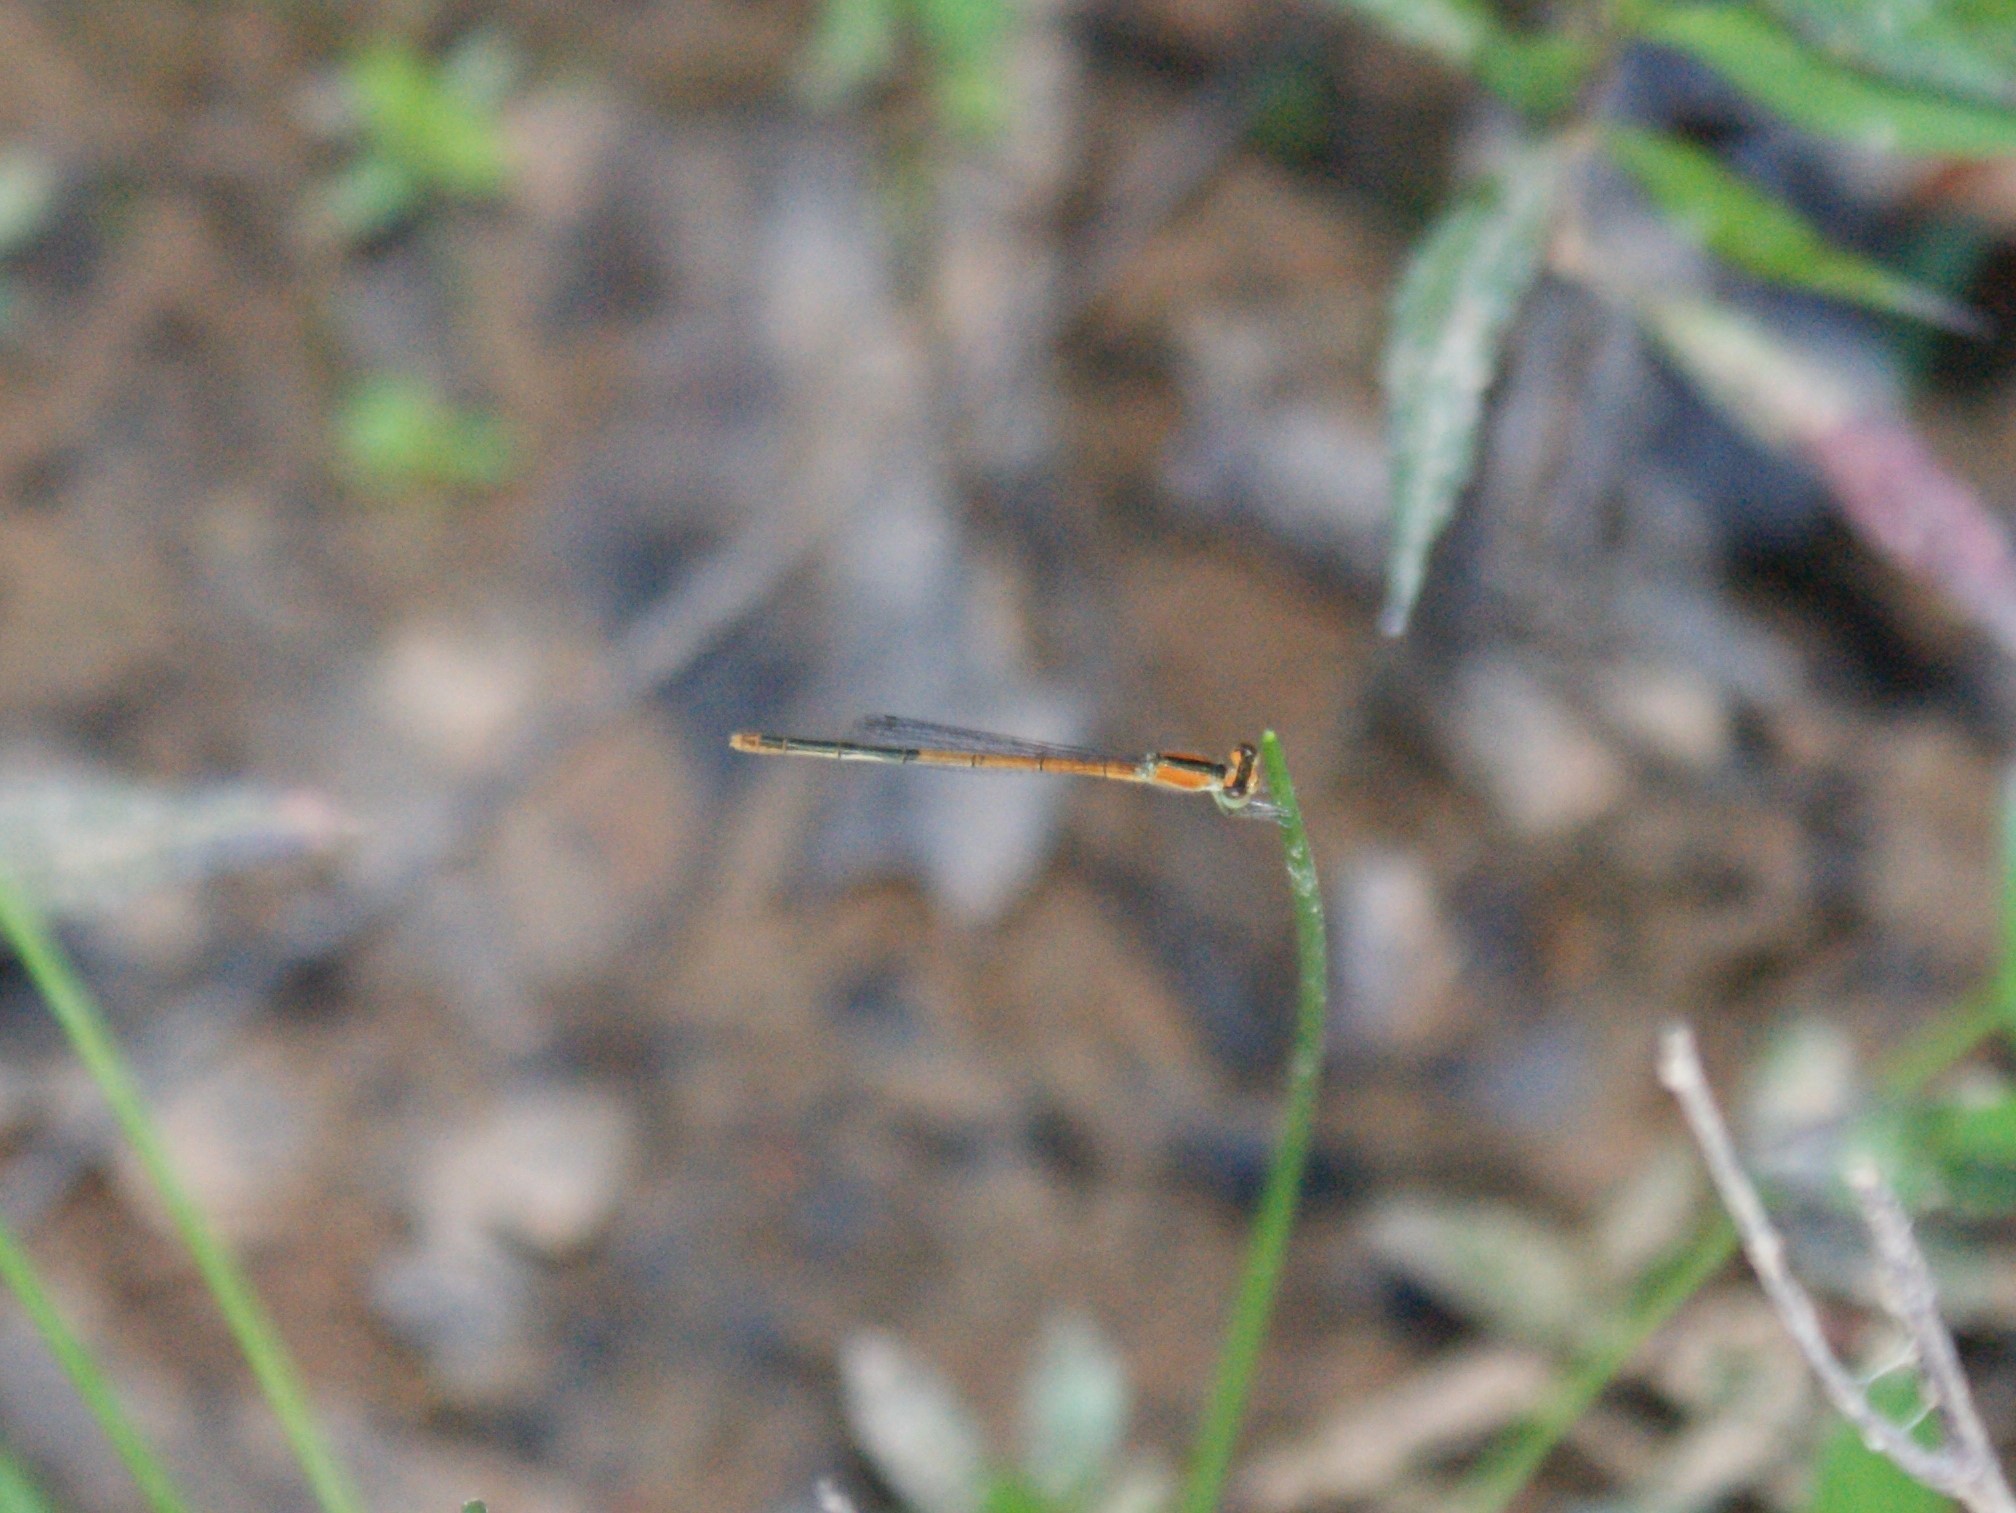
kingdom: Animalia
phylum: Arthropoda
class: Insecta
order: Odonata
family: Coenagrionidae
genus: Ischnura
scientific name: Ischnura hastata
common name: Citrine forktail
